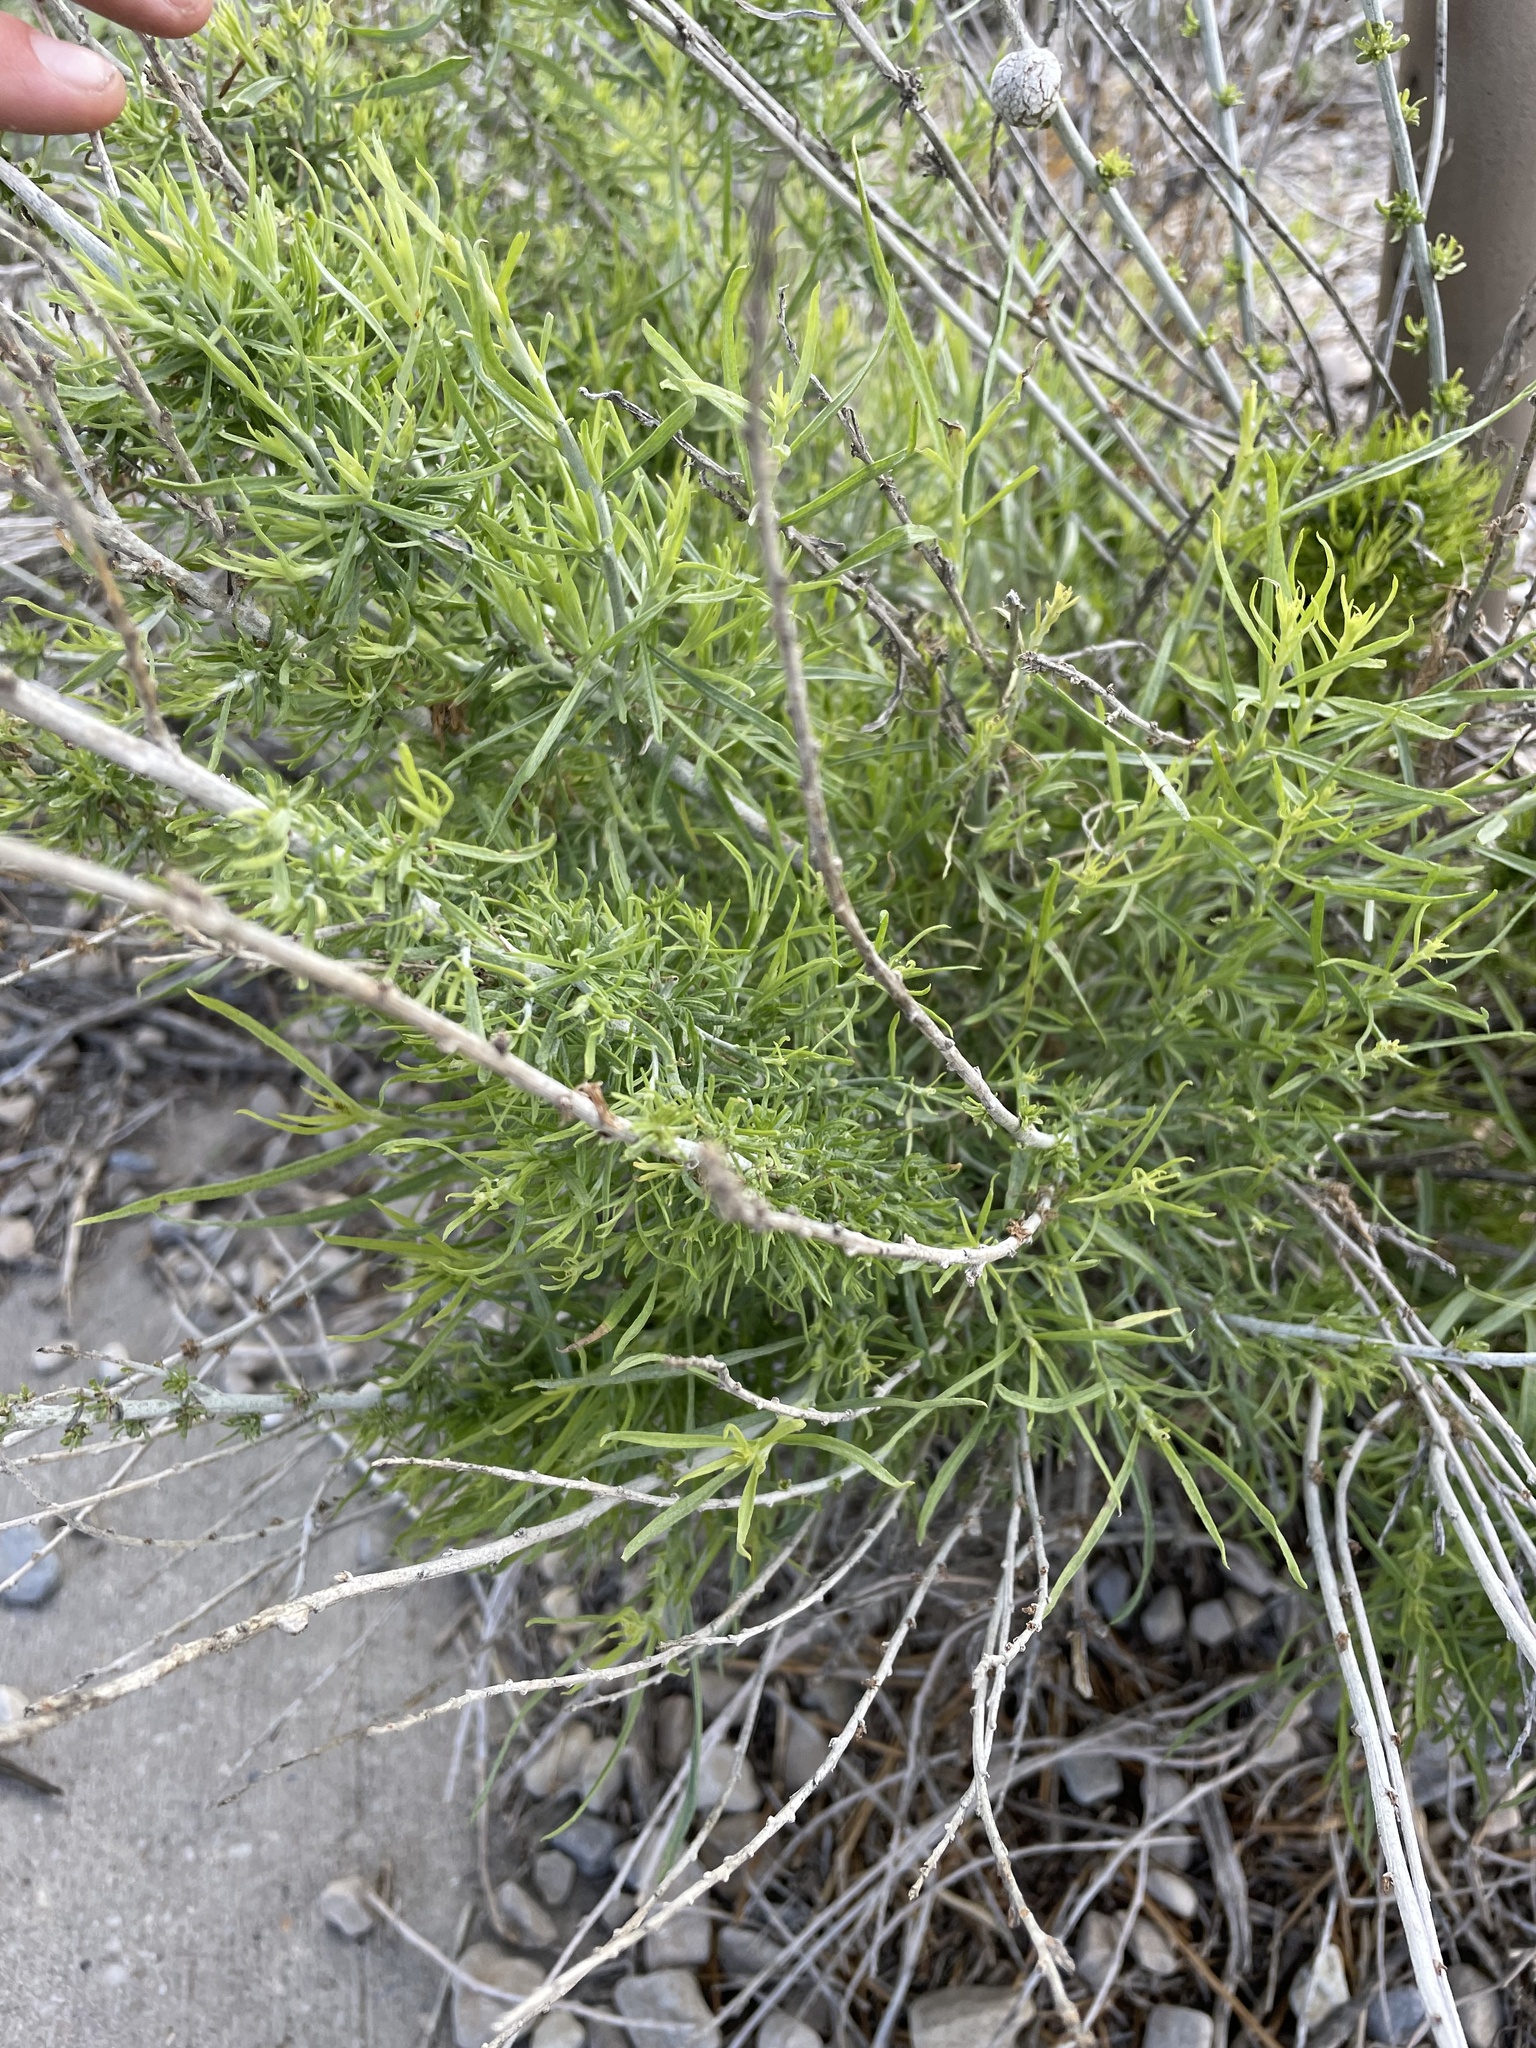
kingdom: Plantae
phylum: Tracheophyta
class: Magnoliopsida
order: Asterales
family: Asteraceae
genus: Ericameria
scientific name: Ericameria nauseosa
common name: Rubber rabbitbrush
